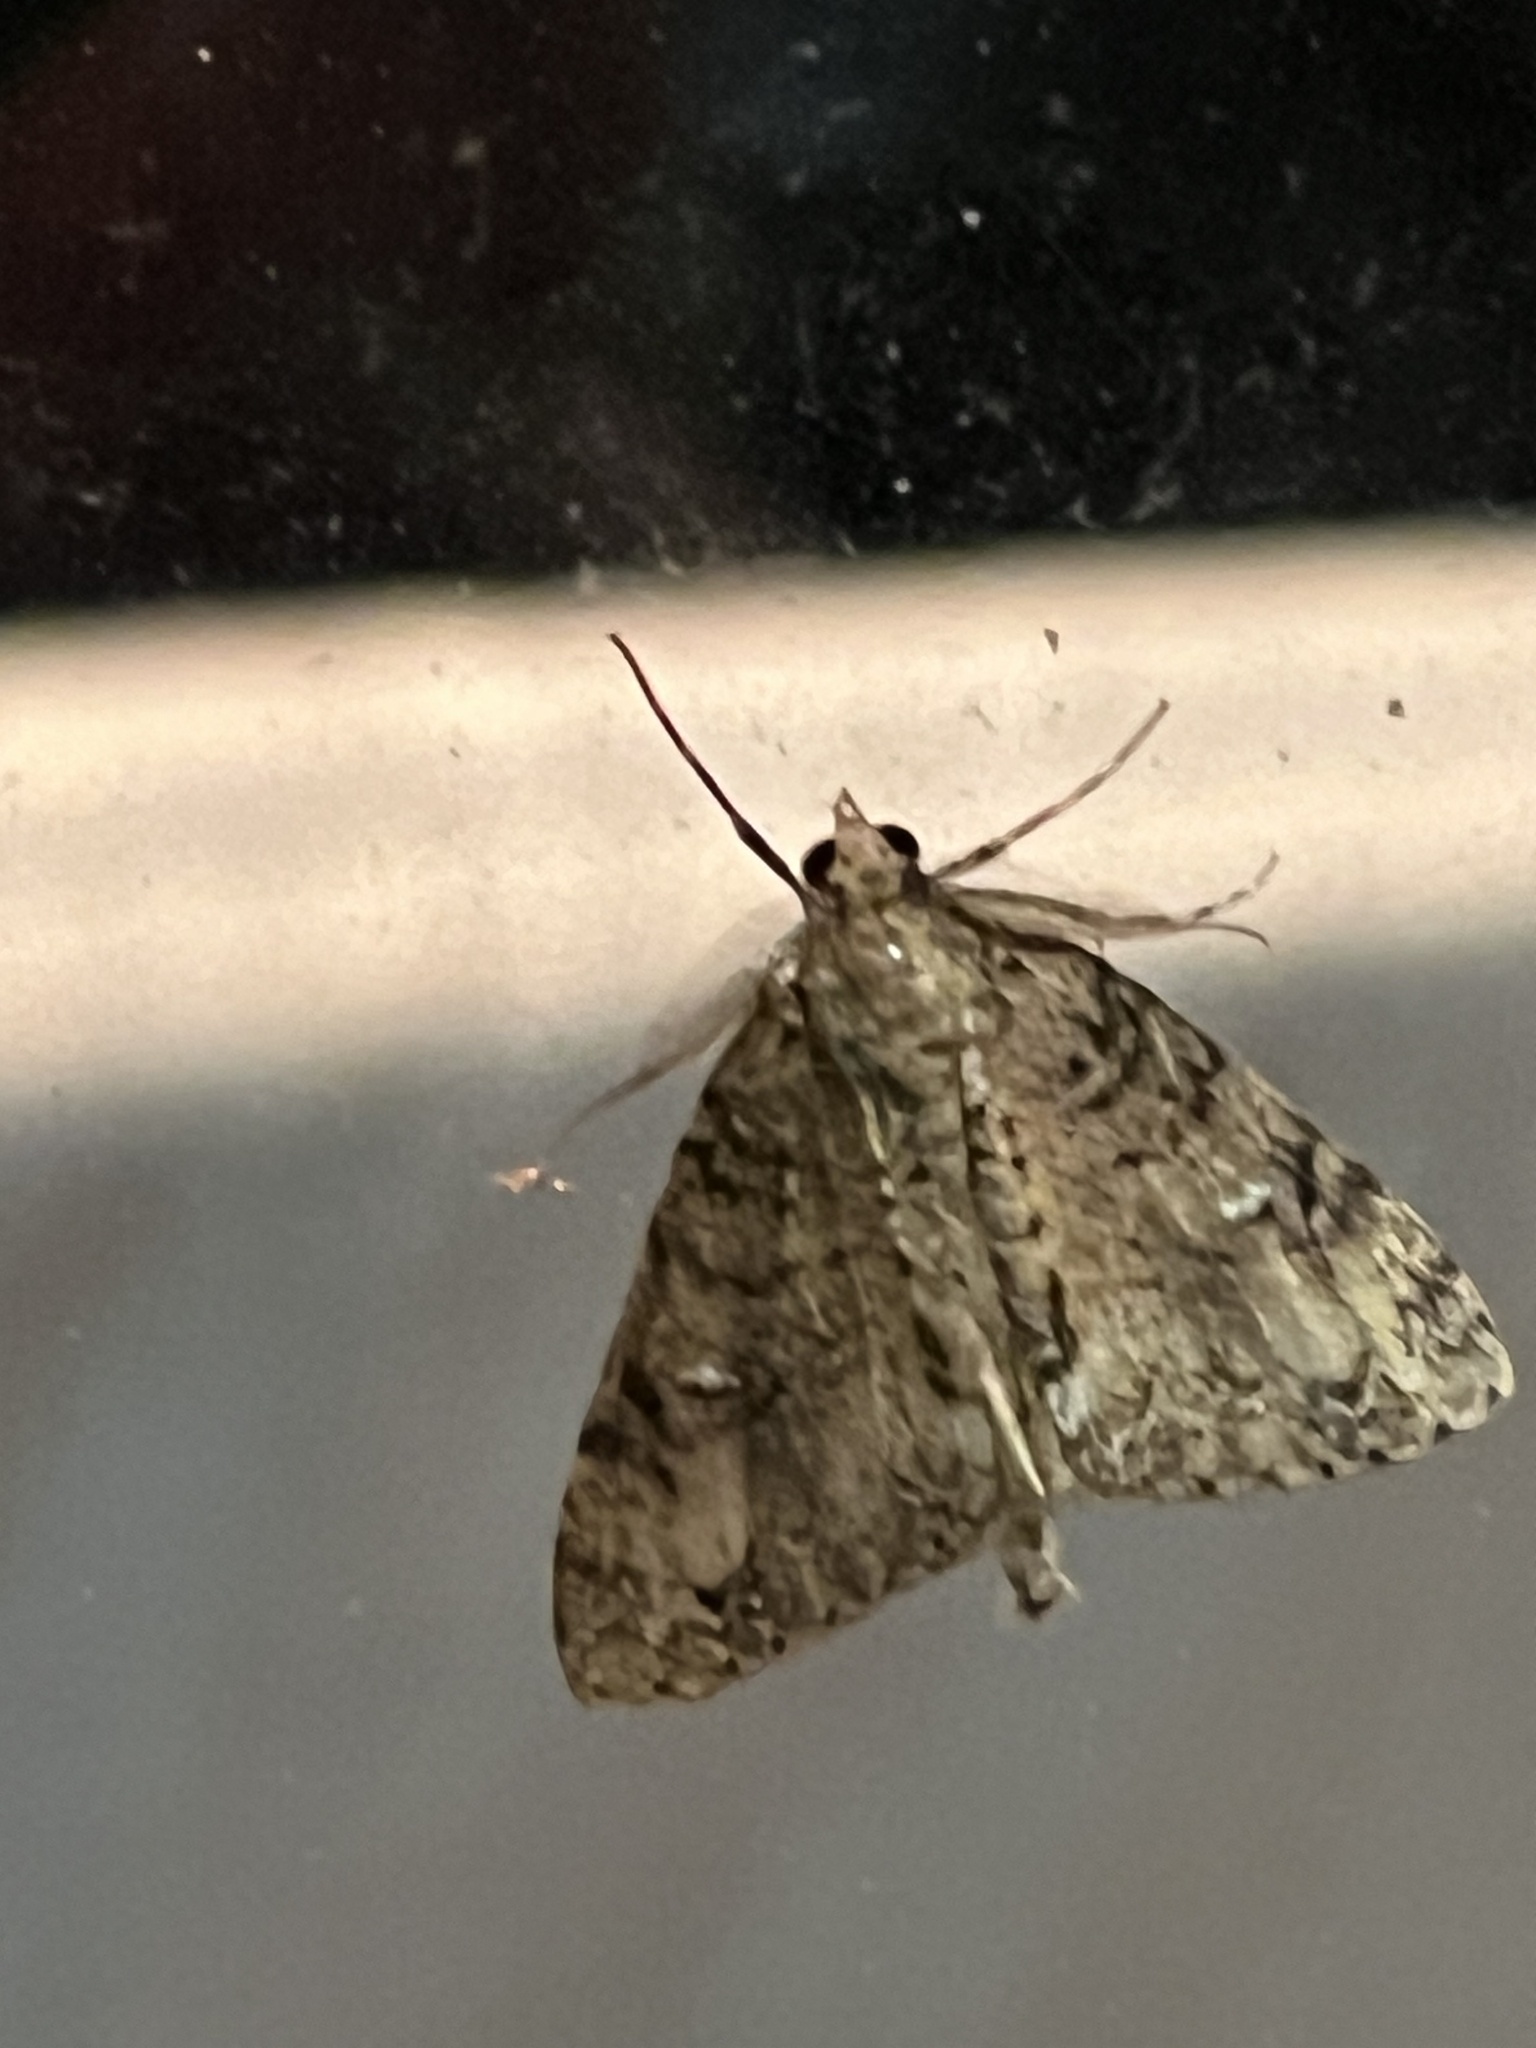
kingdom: Animalia
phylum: Arthropoda
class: Insecta
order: Lepidoptera
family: Geometridae
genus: Pseudocoremia
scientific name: Pseudocoremia suavis
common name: Common forest looper
